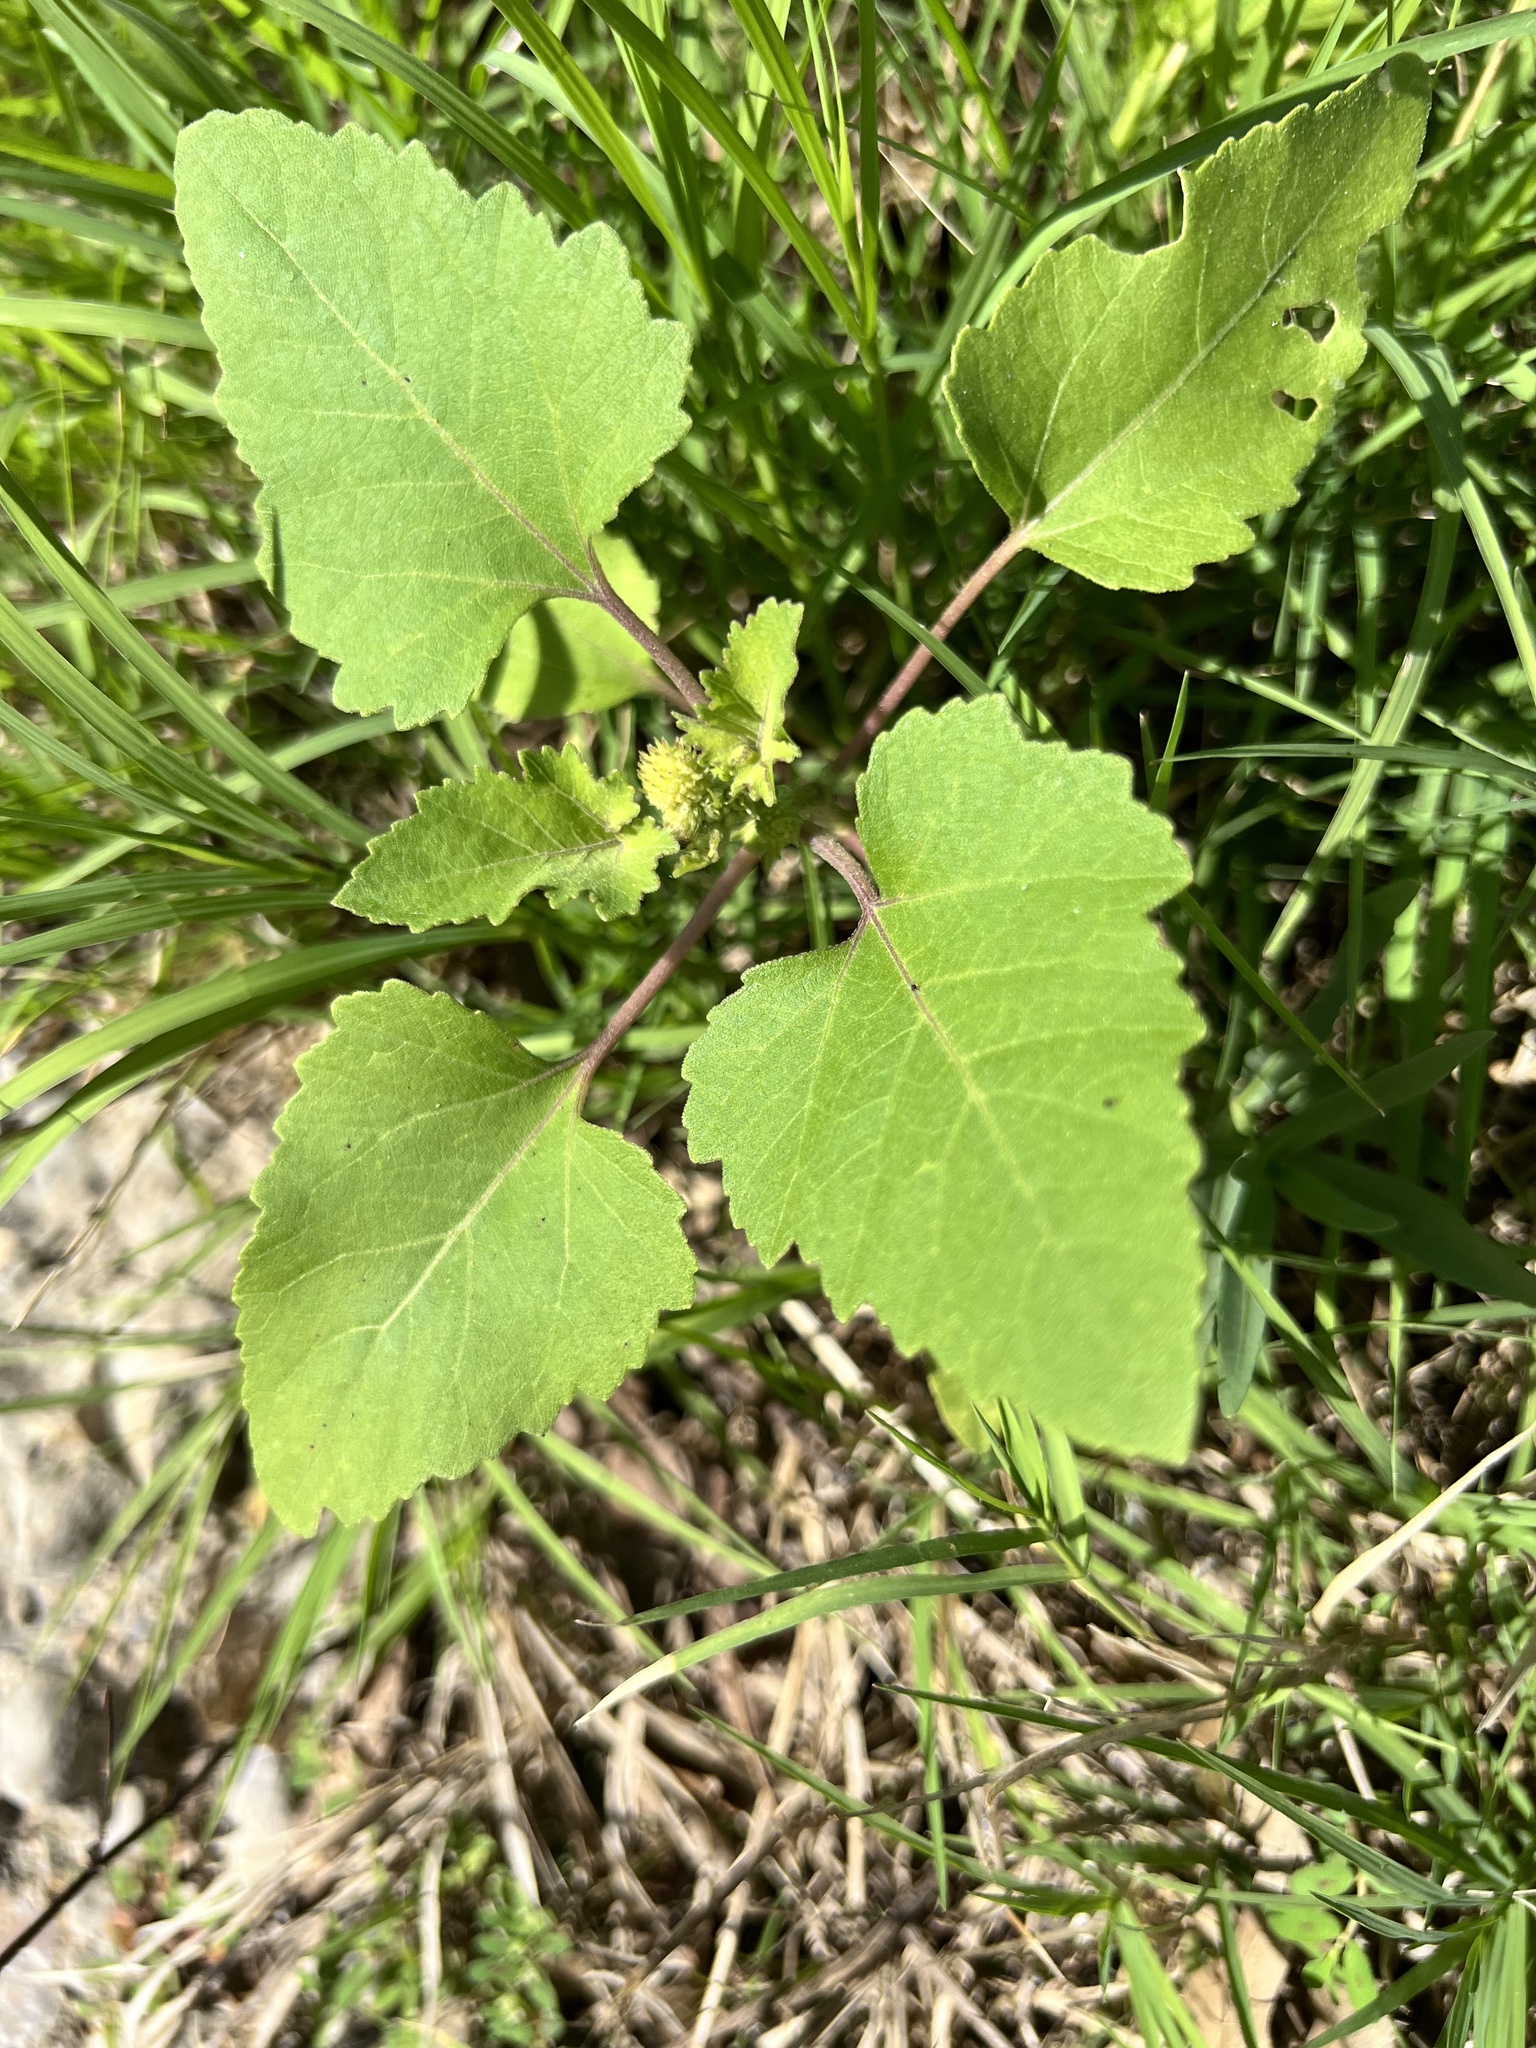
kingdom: Plantae
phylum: Tracheophyta
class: Magnoliopsida
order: Asterales
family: Asteraceae
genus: Xanthium
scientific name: Xanthium strumarium
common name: Rough cocklebur
